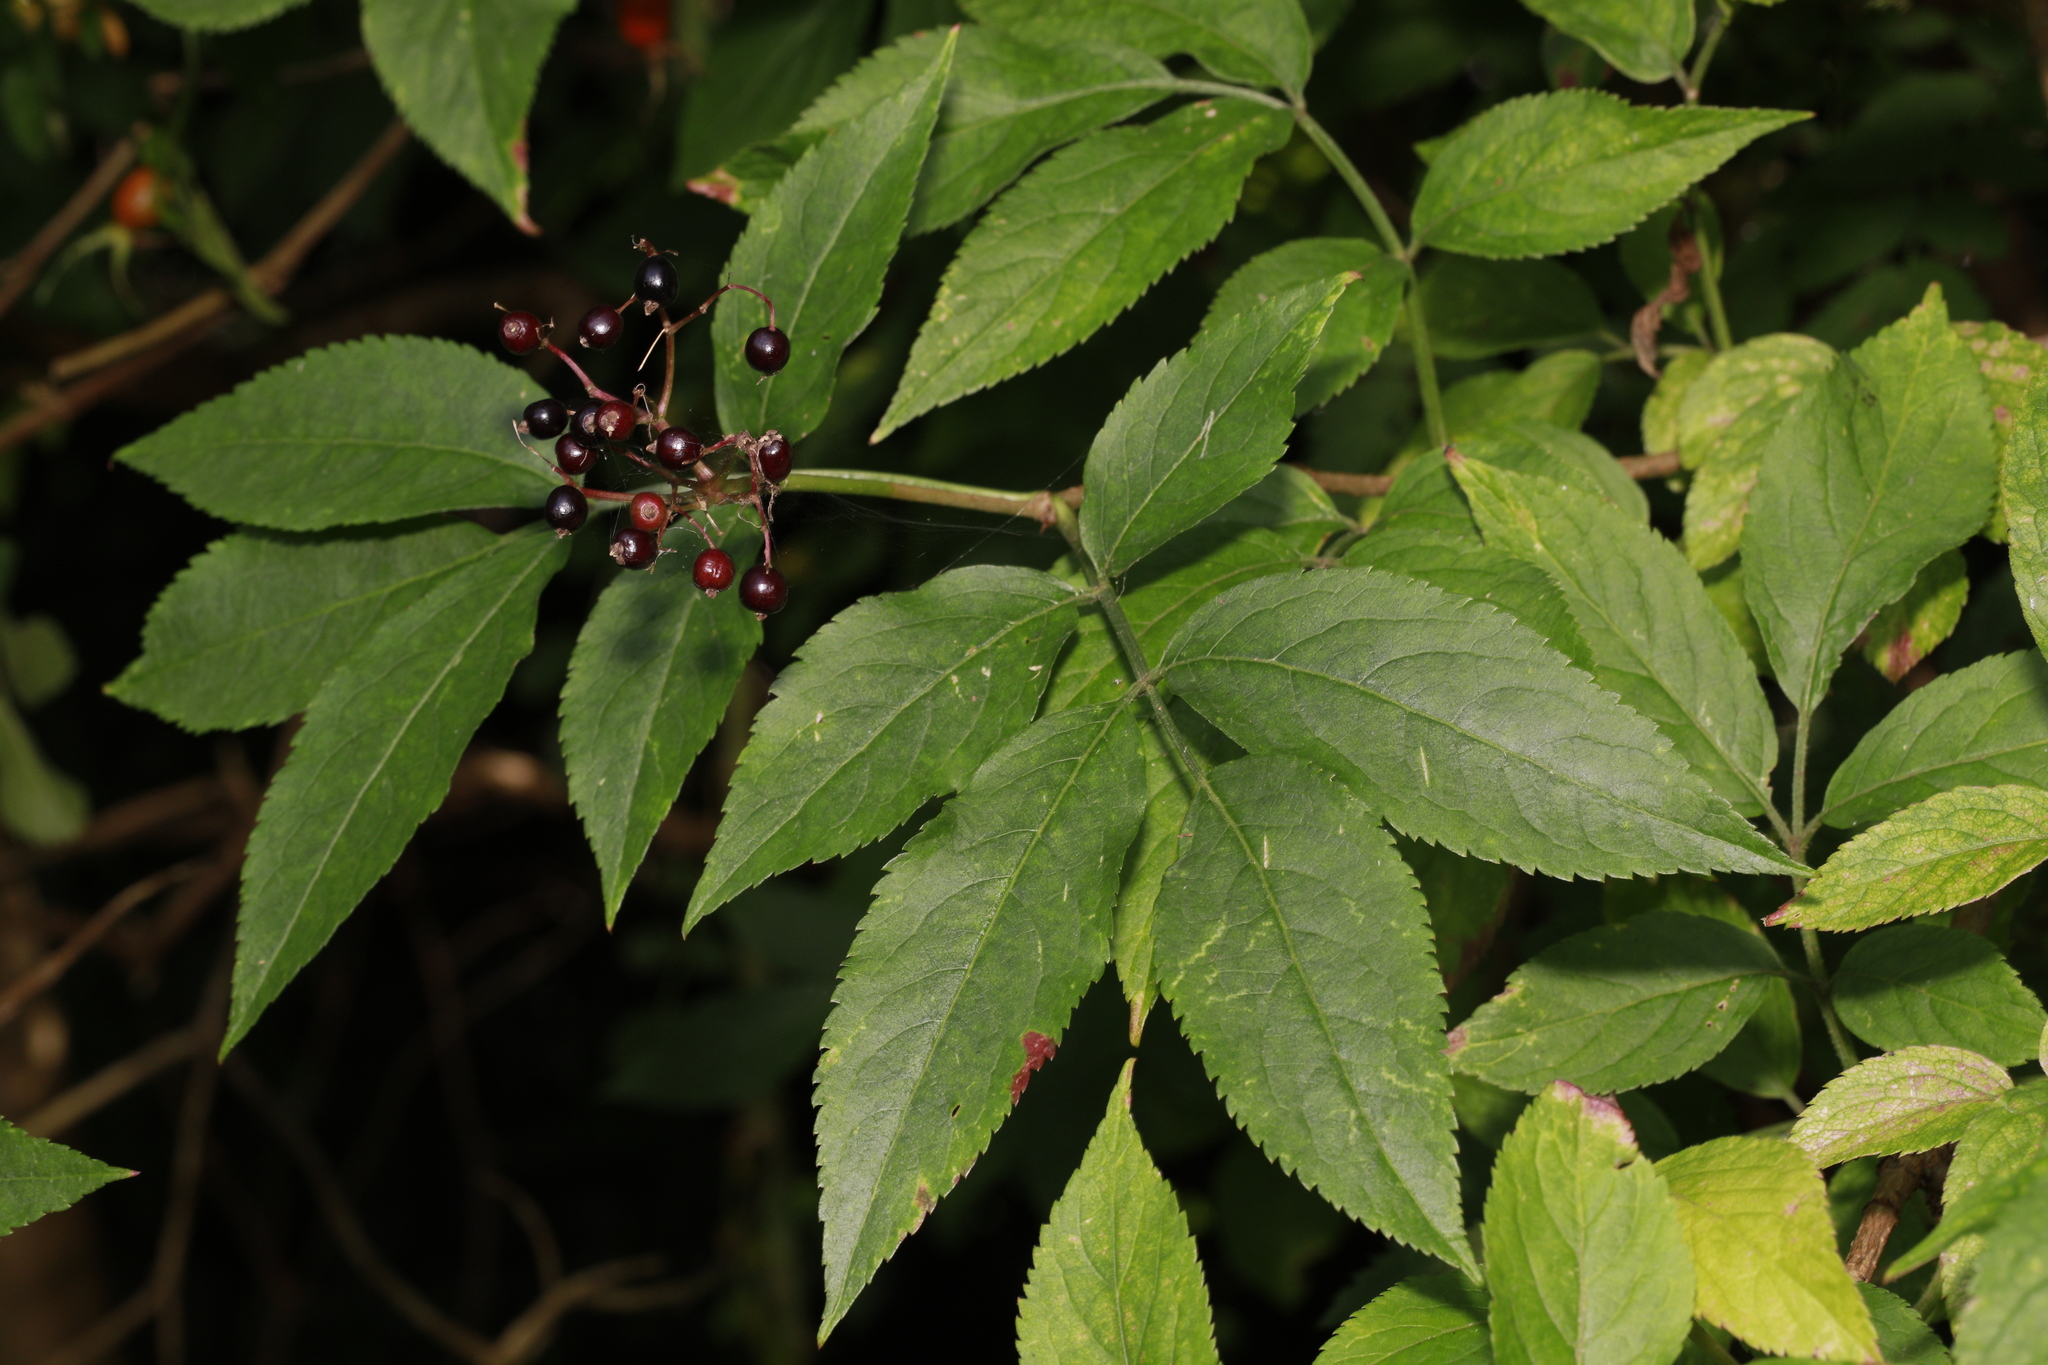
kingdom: Plantae
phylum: Tracheophyta
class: Magnoliopsida
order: Dipsacales
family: Viburnaceae
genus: Sambucus
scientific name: Sambucus nigra
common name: Elder
